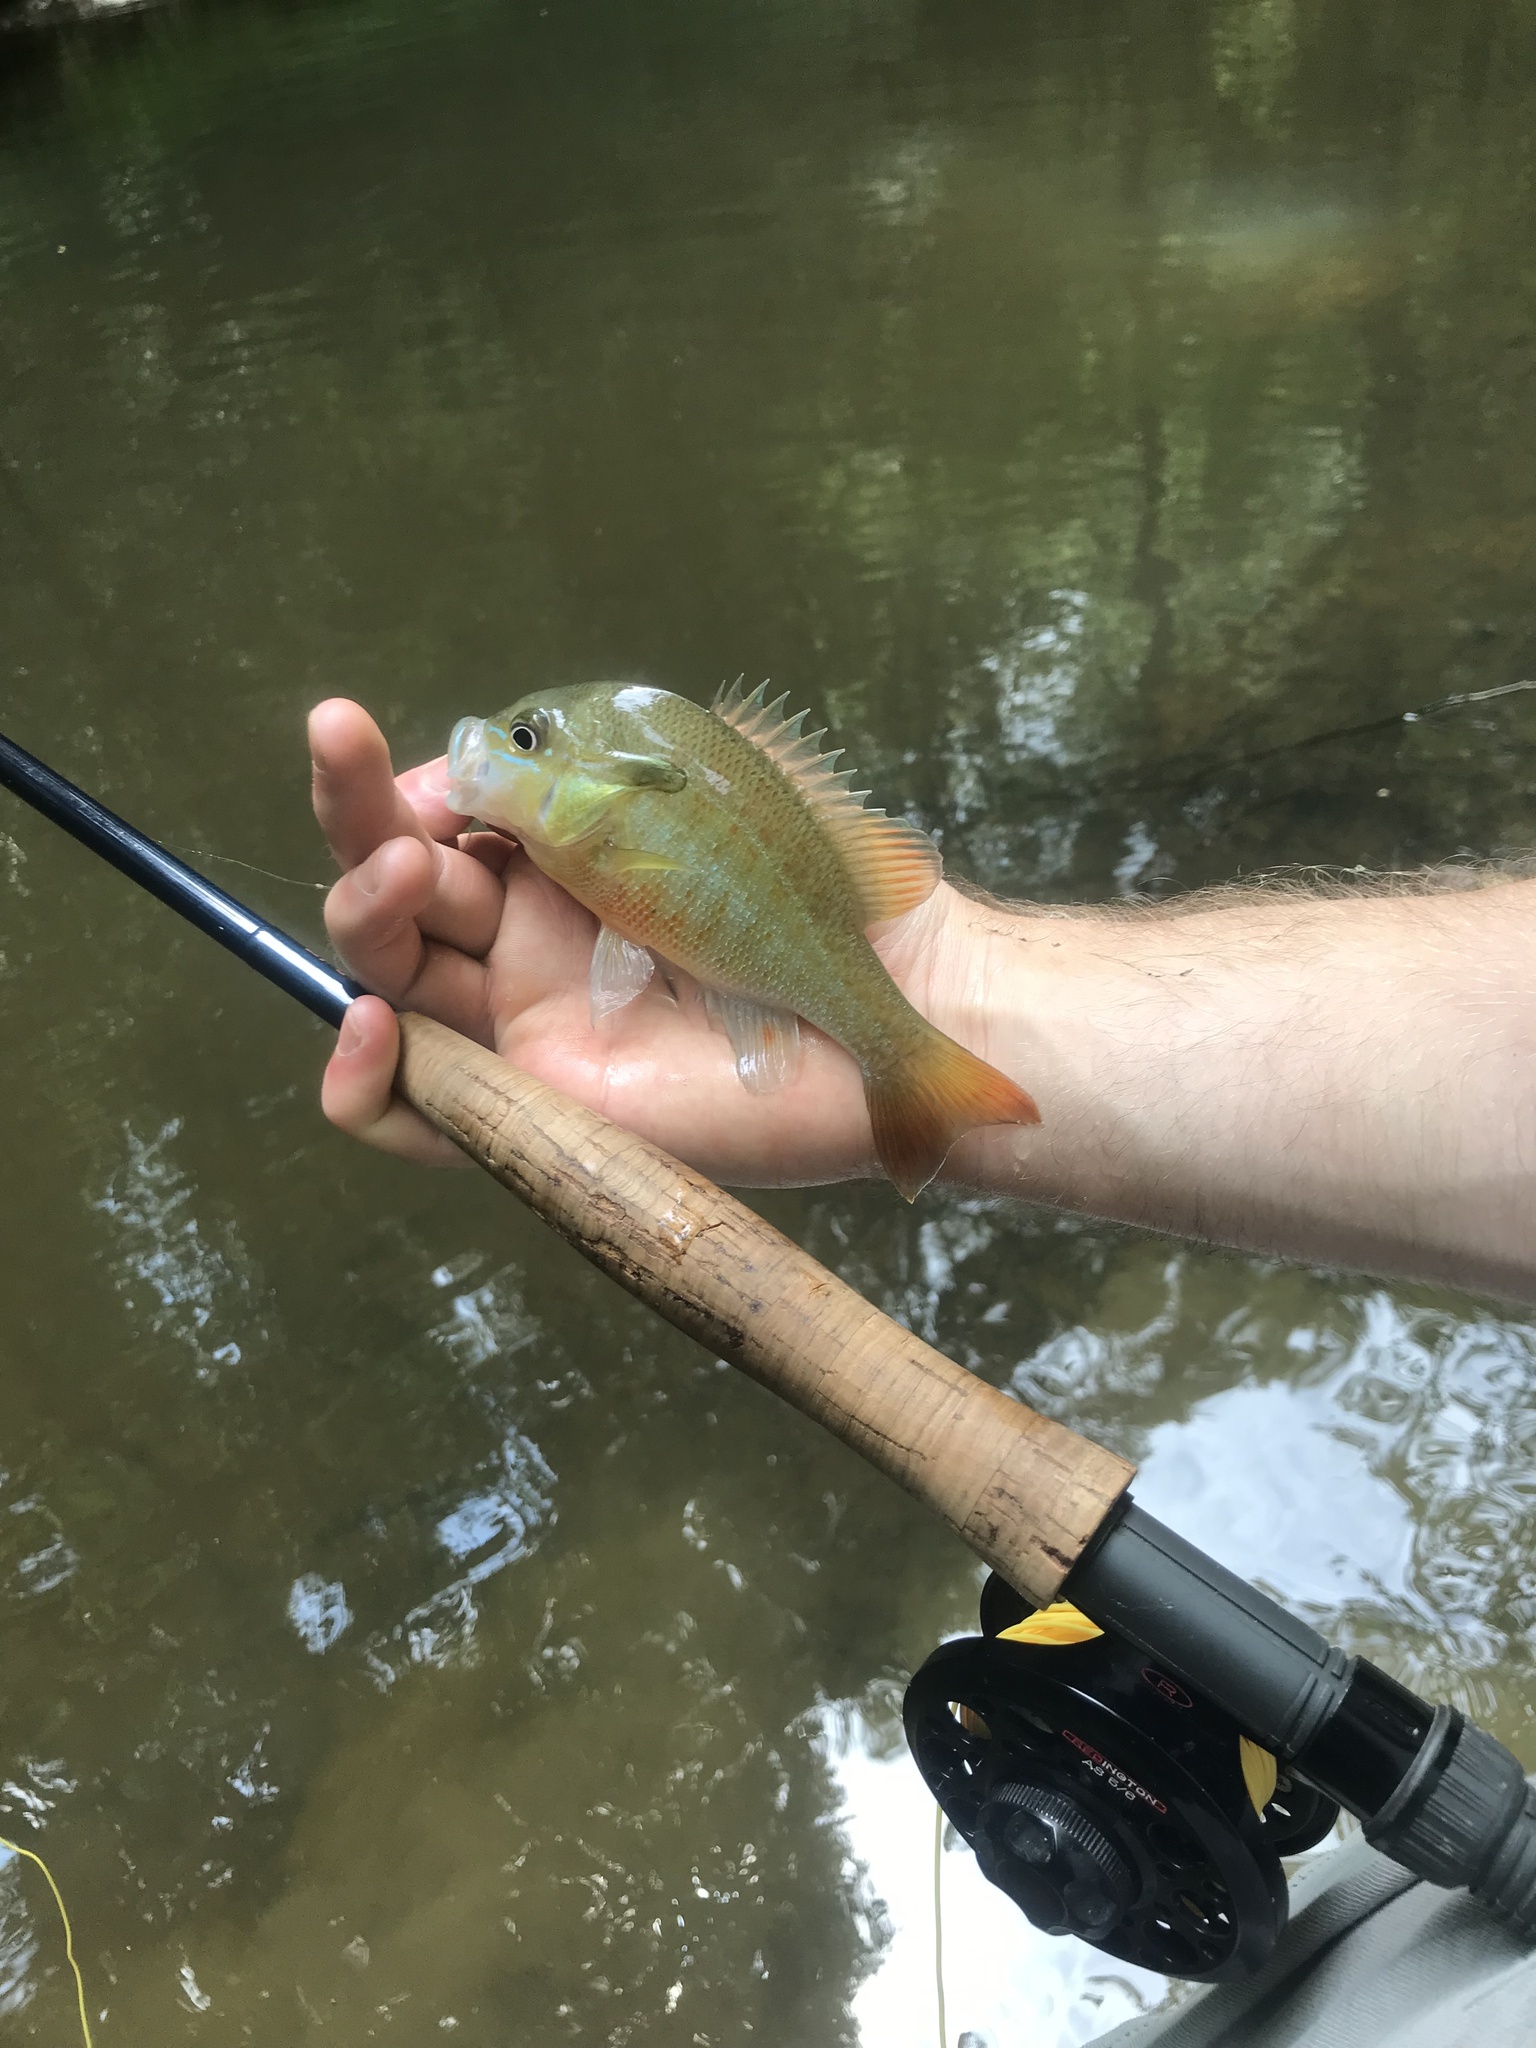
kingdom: Animalia
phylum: Chordata
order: Perciformes
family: Centrarchidae
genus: Lepomis
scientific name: Lepomis auritus
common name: Redbreast sunfish
